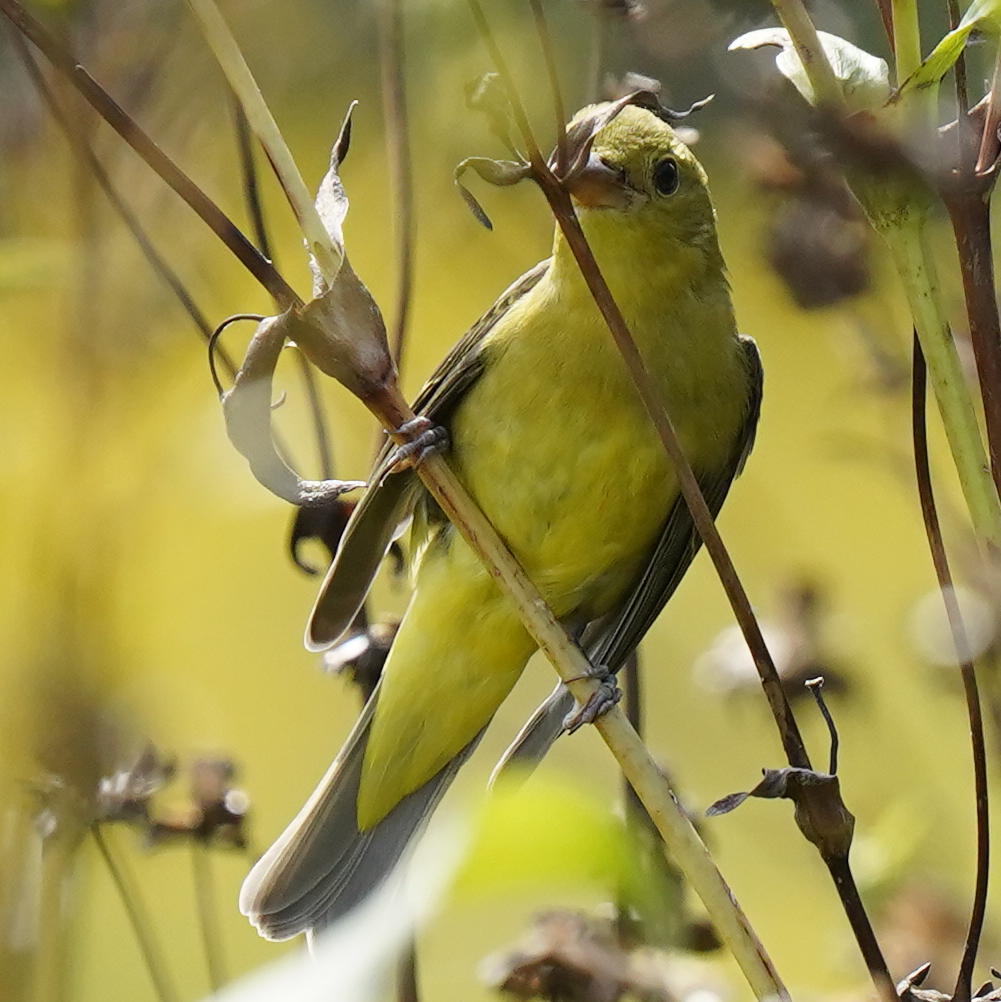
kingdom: Animalia
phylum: Chordata
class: Aves
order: Passeriformes
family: Cardinalidae
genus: Piranga
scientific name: Piranga olivacea
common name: Scarlet tanager
